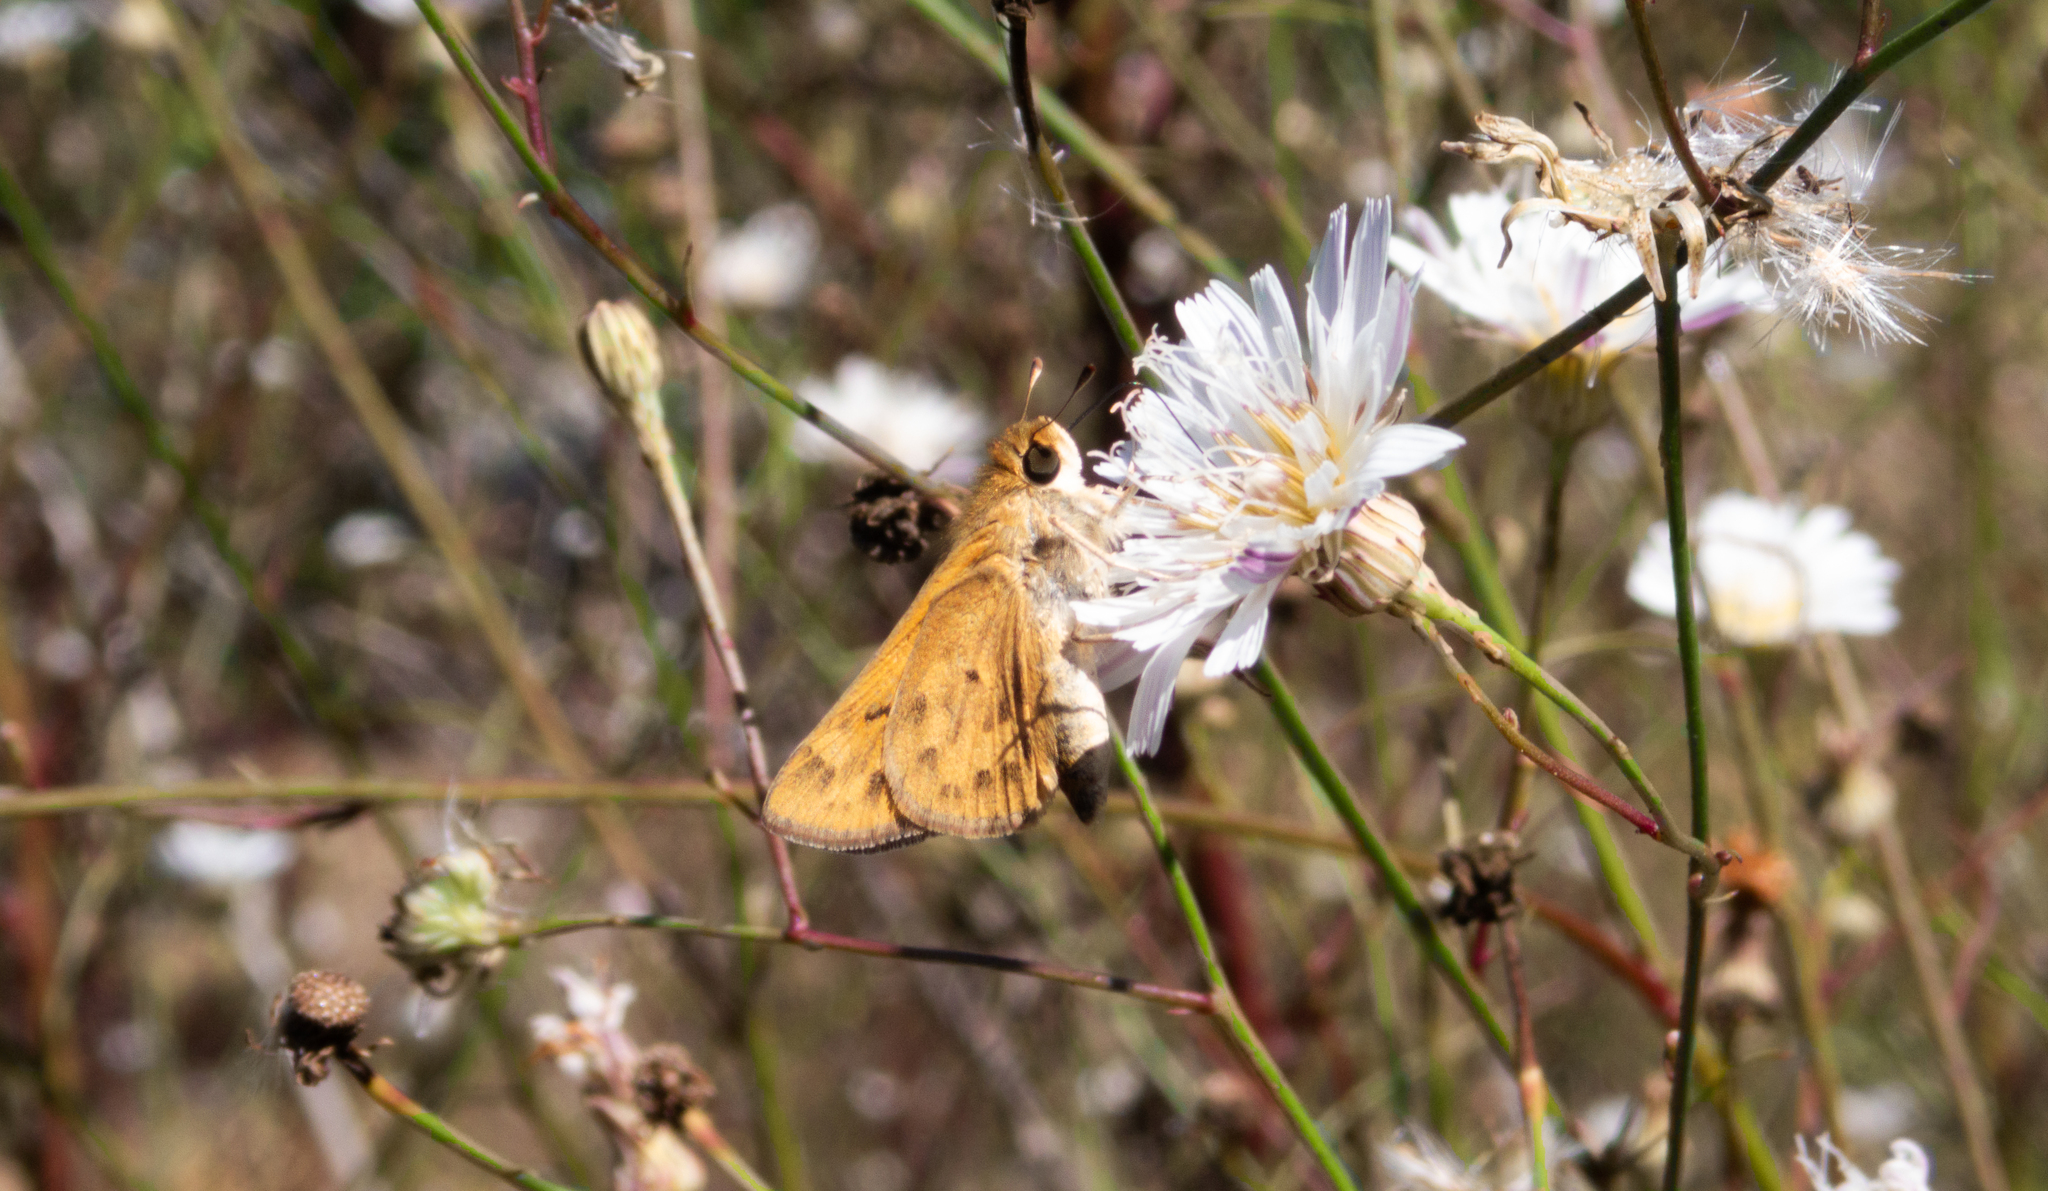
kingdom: Animalia
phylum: Arthropoda
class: Insecta
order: Lepidoptera
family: Hesperiidae
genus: Hylephila
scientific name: Hylephila phyleus
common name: Fiery skipper
